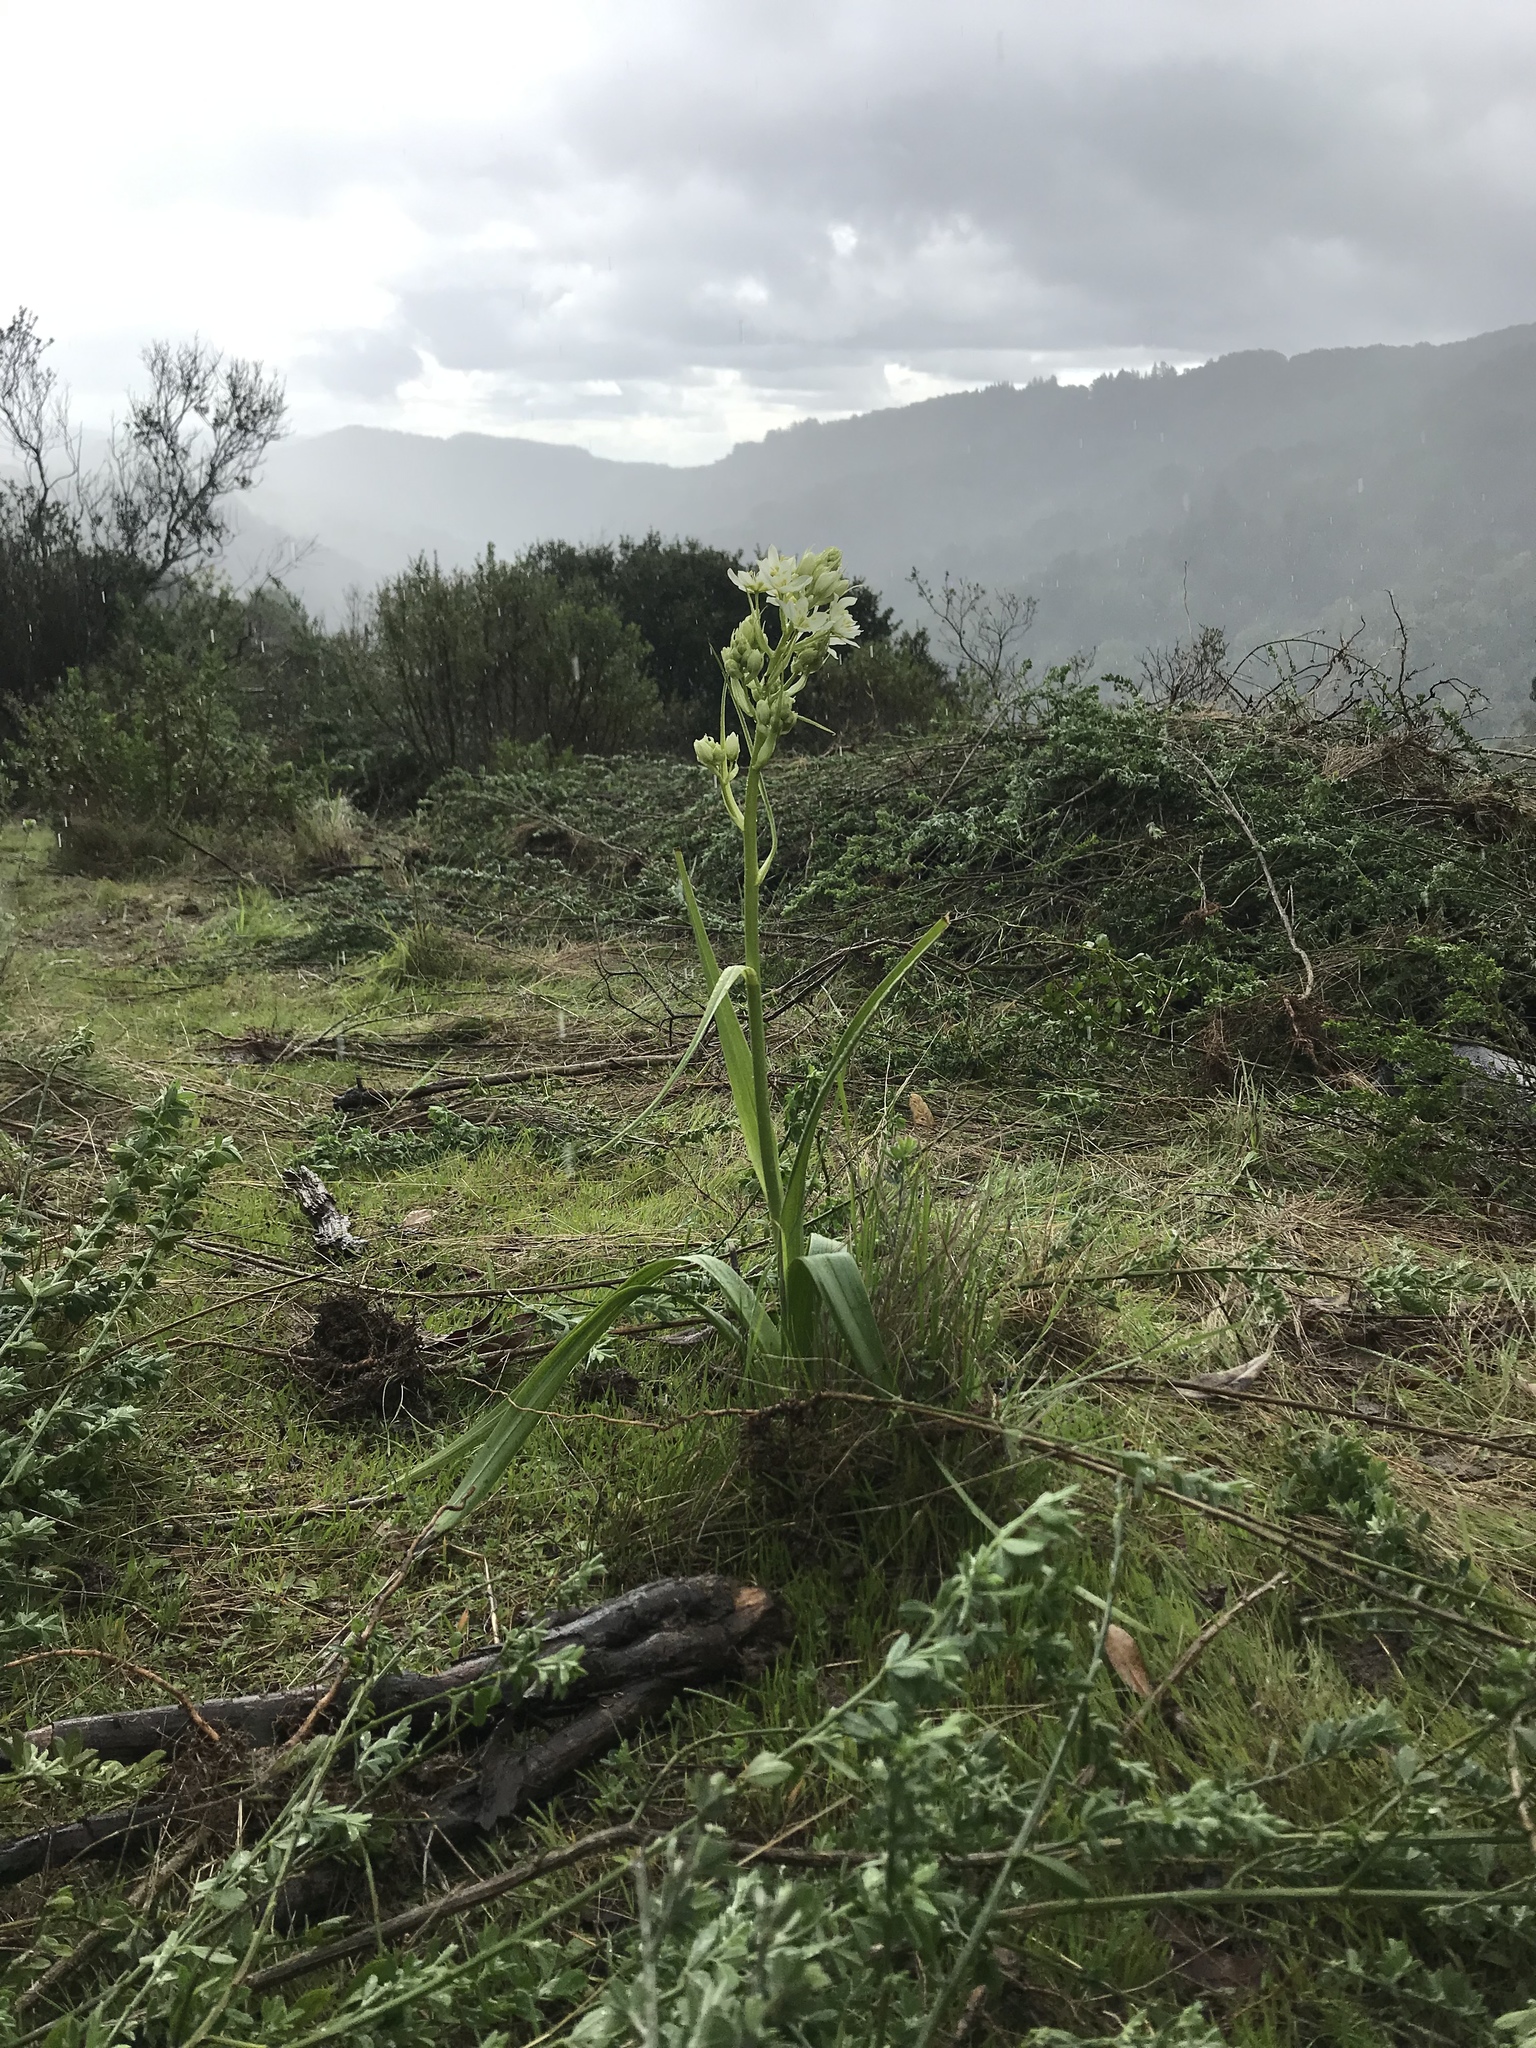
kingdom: Plantae
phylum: Tracheophyta
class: Liliopsida
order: Liliales
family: Melanthiaceae
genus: Toxicoscordion
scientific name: Toxicoscordion fremontii
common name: Fremont's death camas
